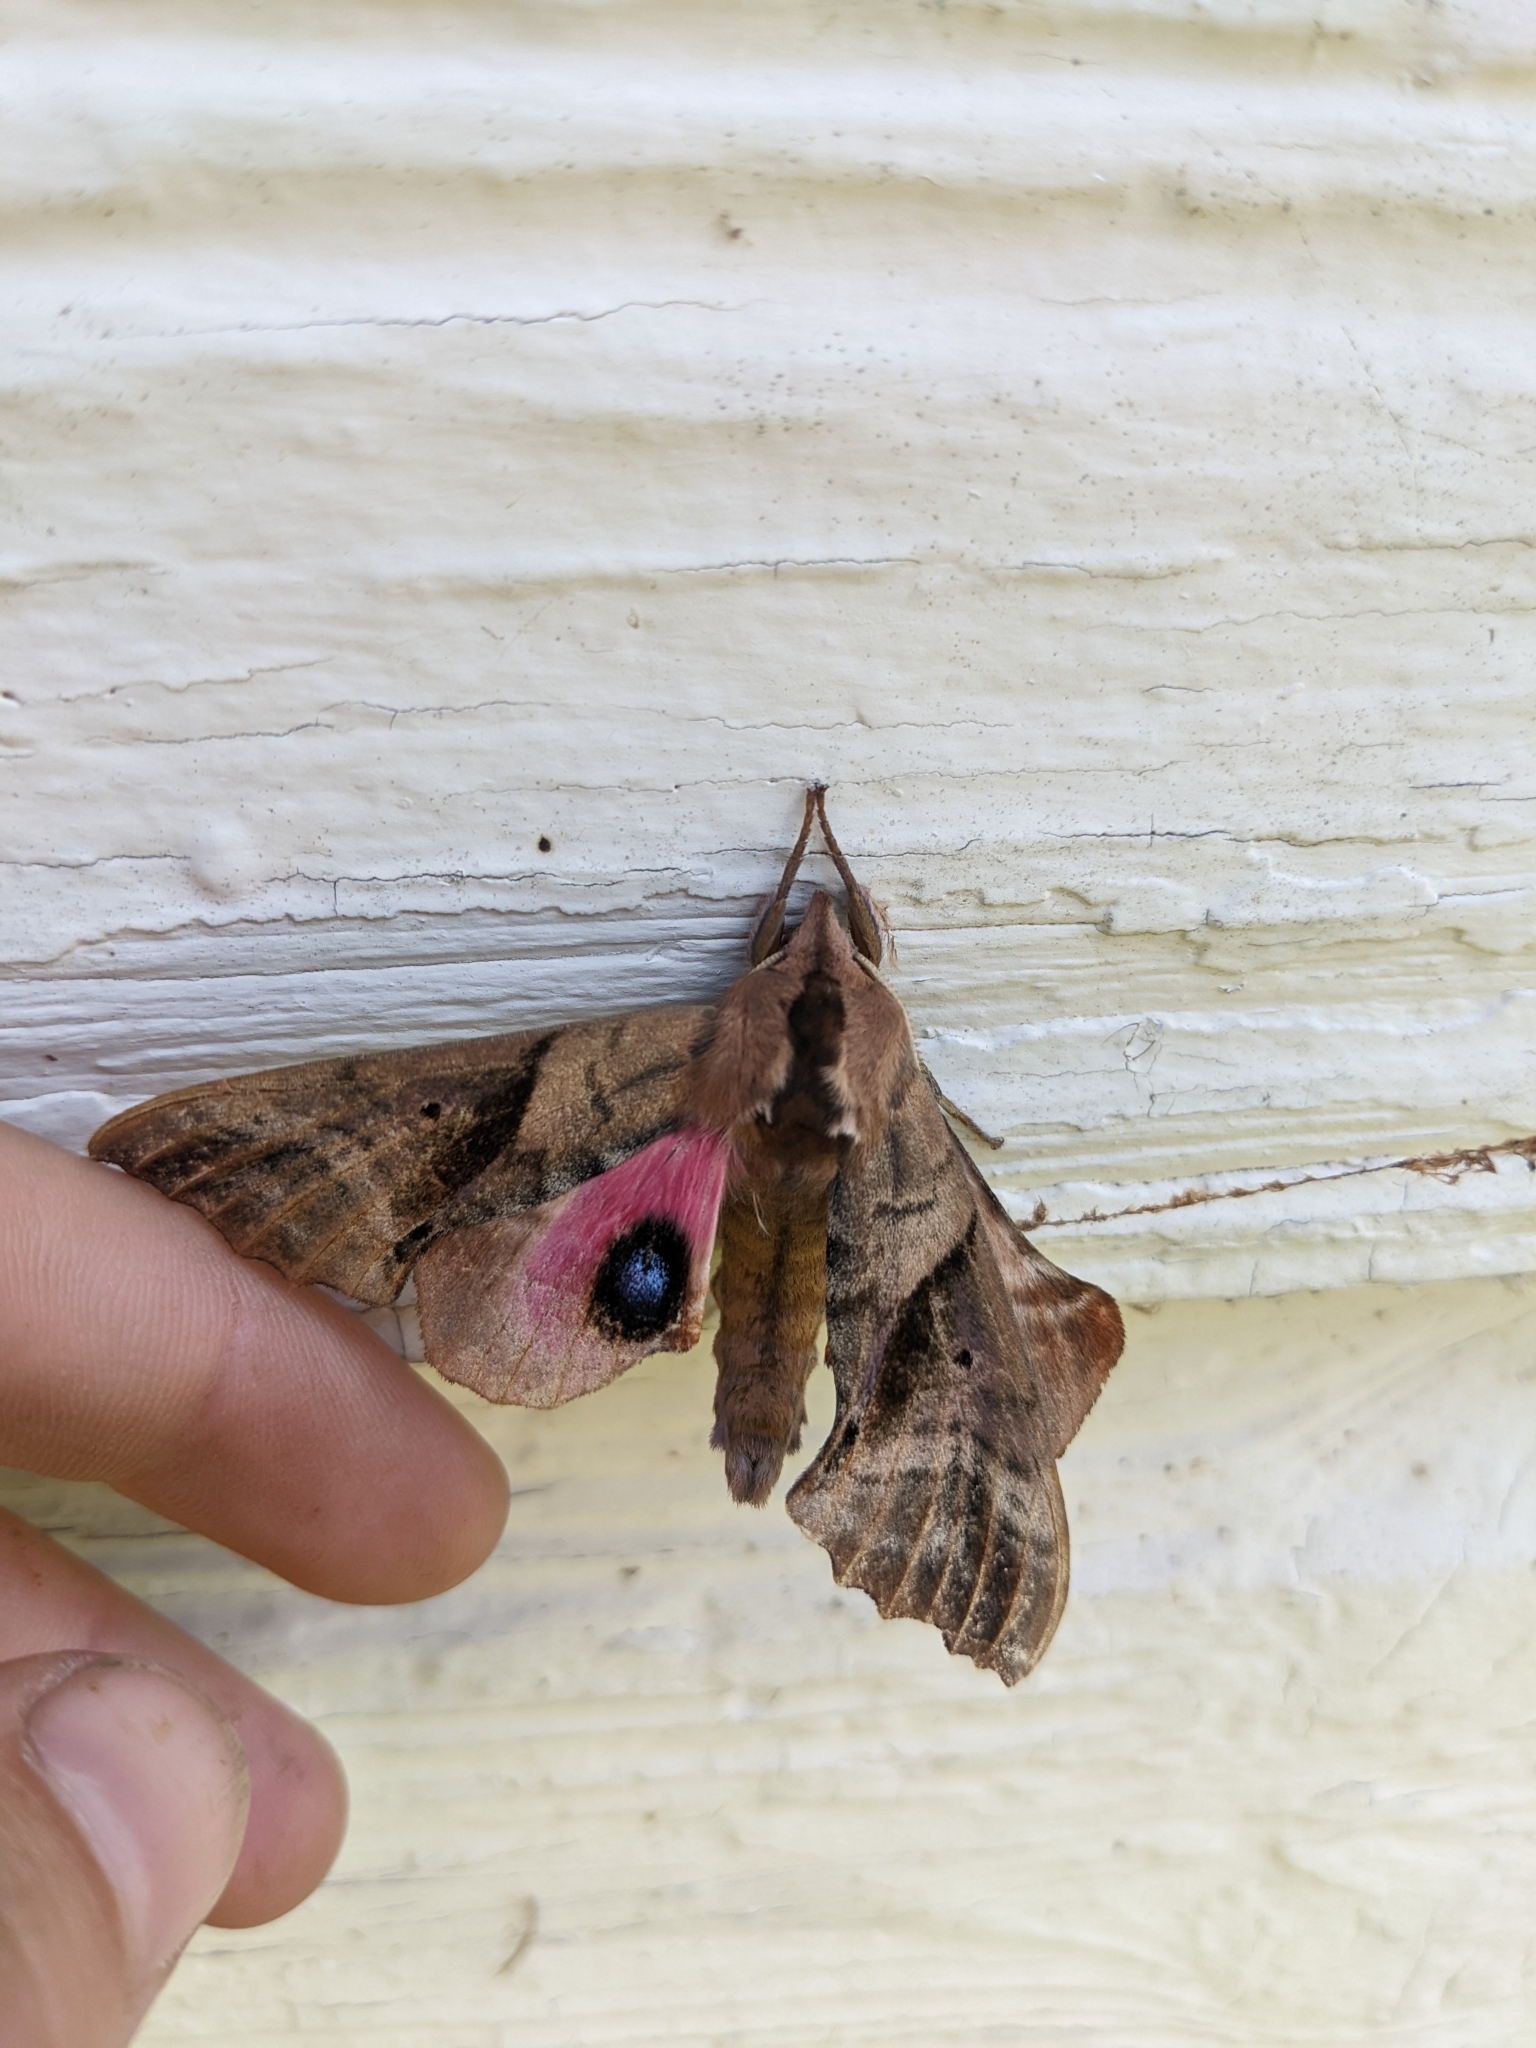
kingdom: Animalia
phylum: Arthropoda
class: Insecta
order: Lepidoptera
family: Sphingidae
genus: Paonias
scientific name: Paonias excaecata
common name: Blind-eyed sphinx
